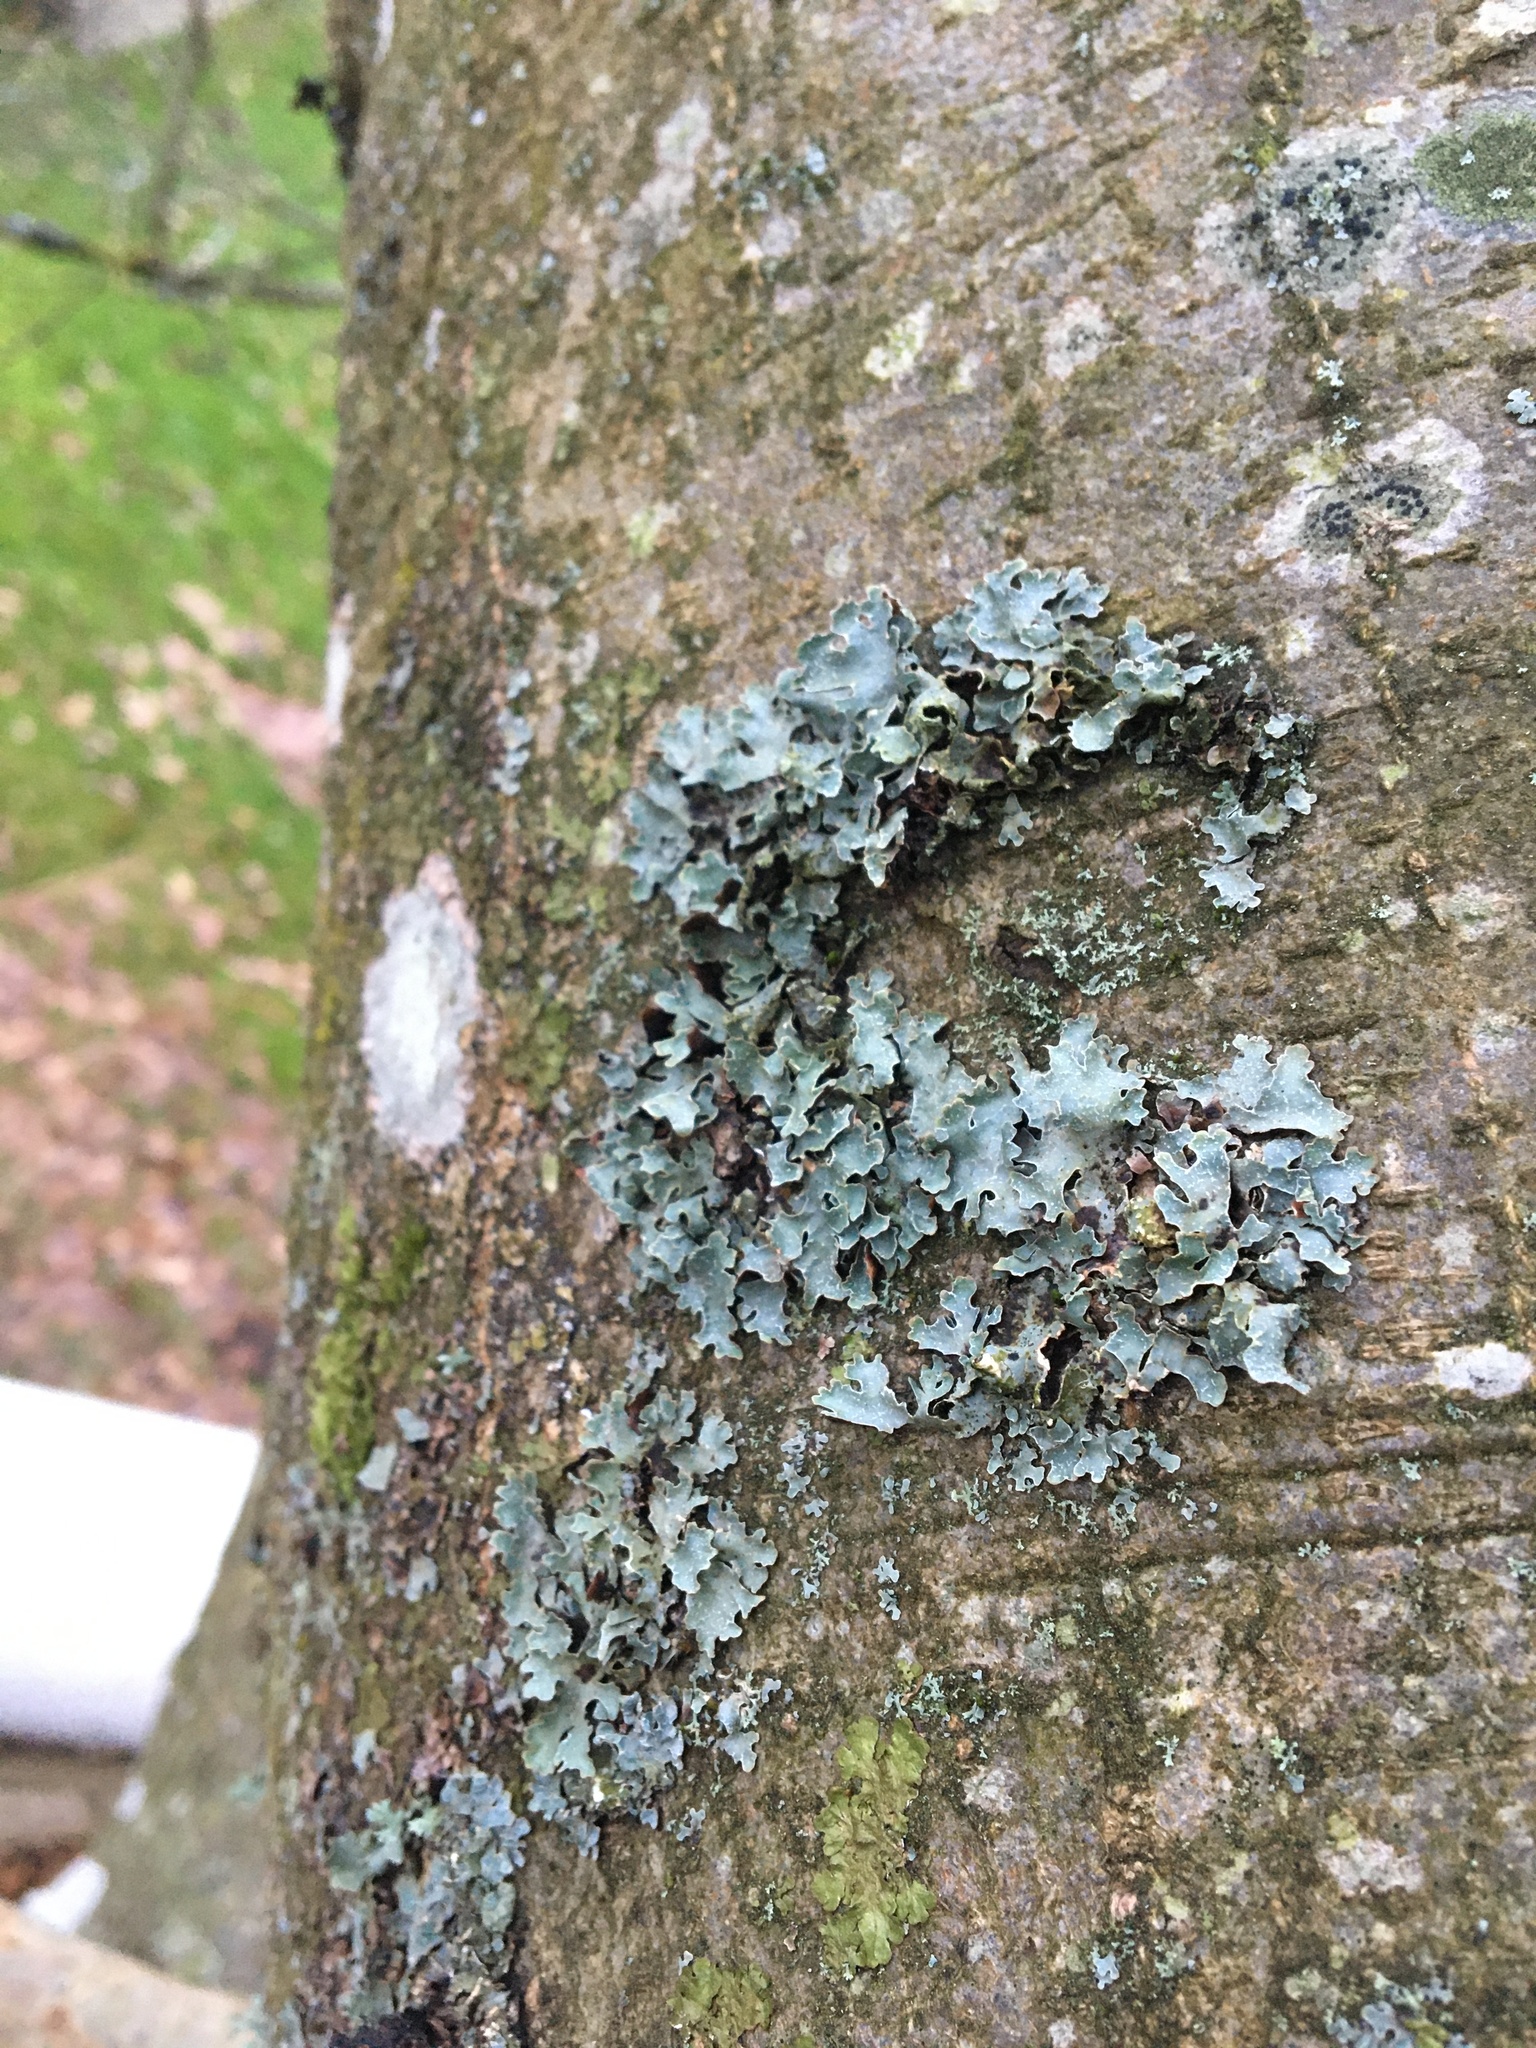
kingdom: Fungi
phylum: Ascomycota
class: Lecanoromycetes
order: Lecanorales
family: Parmeliaceae
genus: Parmelia
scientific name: Parmelia sulcata
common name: Netted shield lichen
